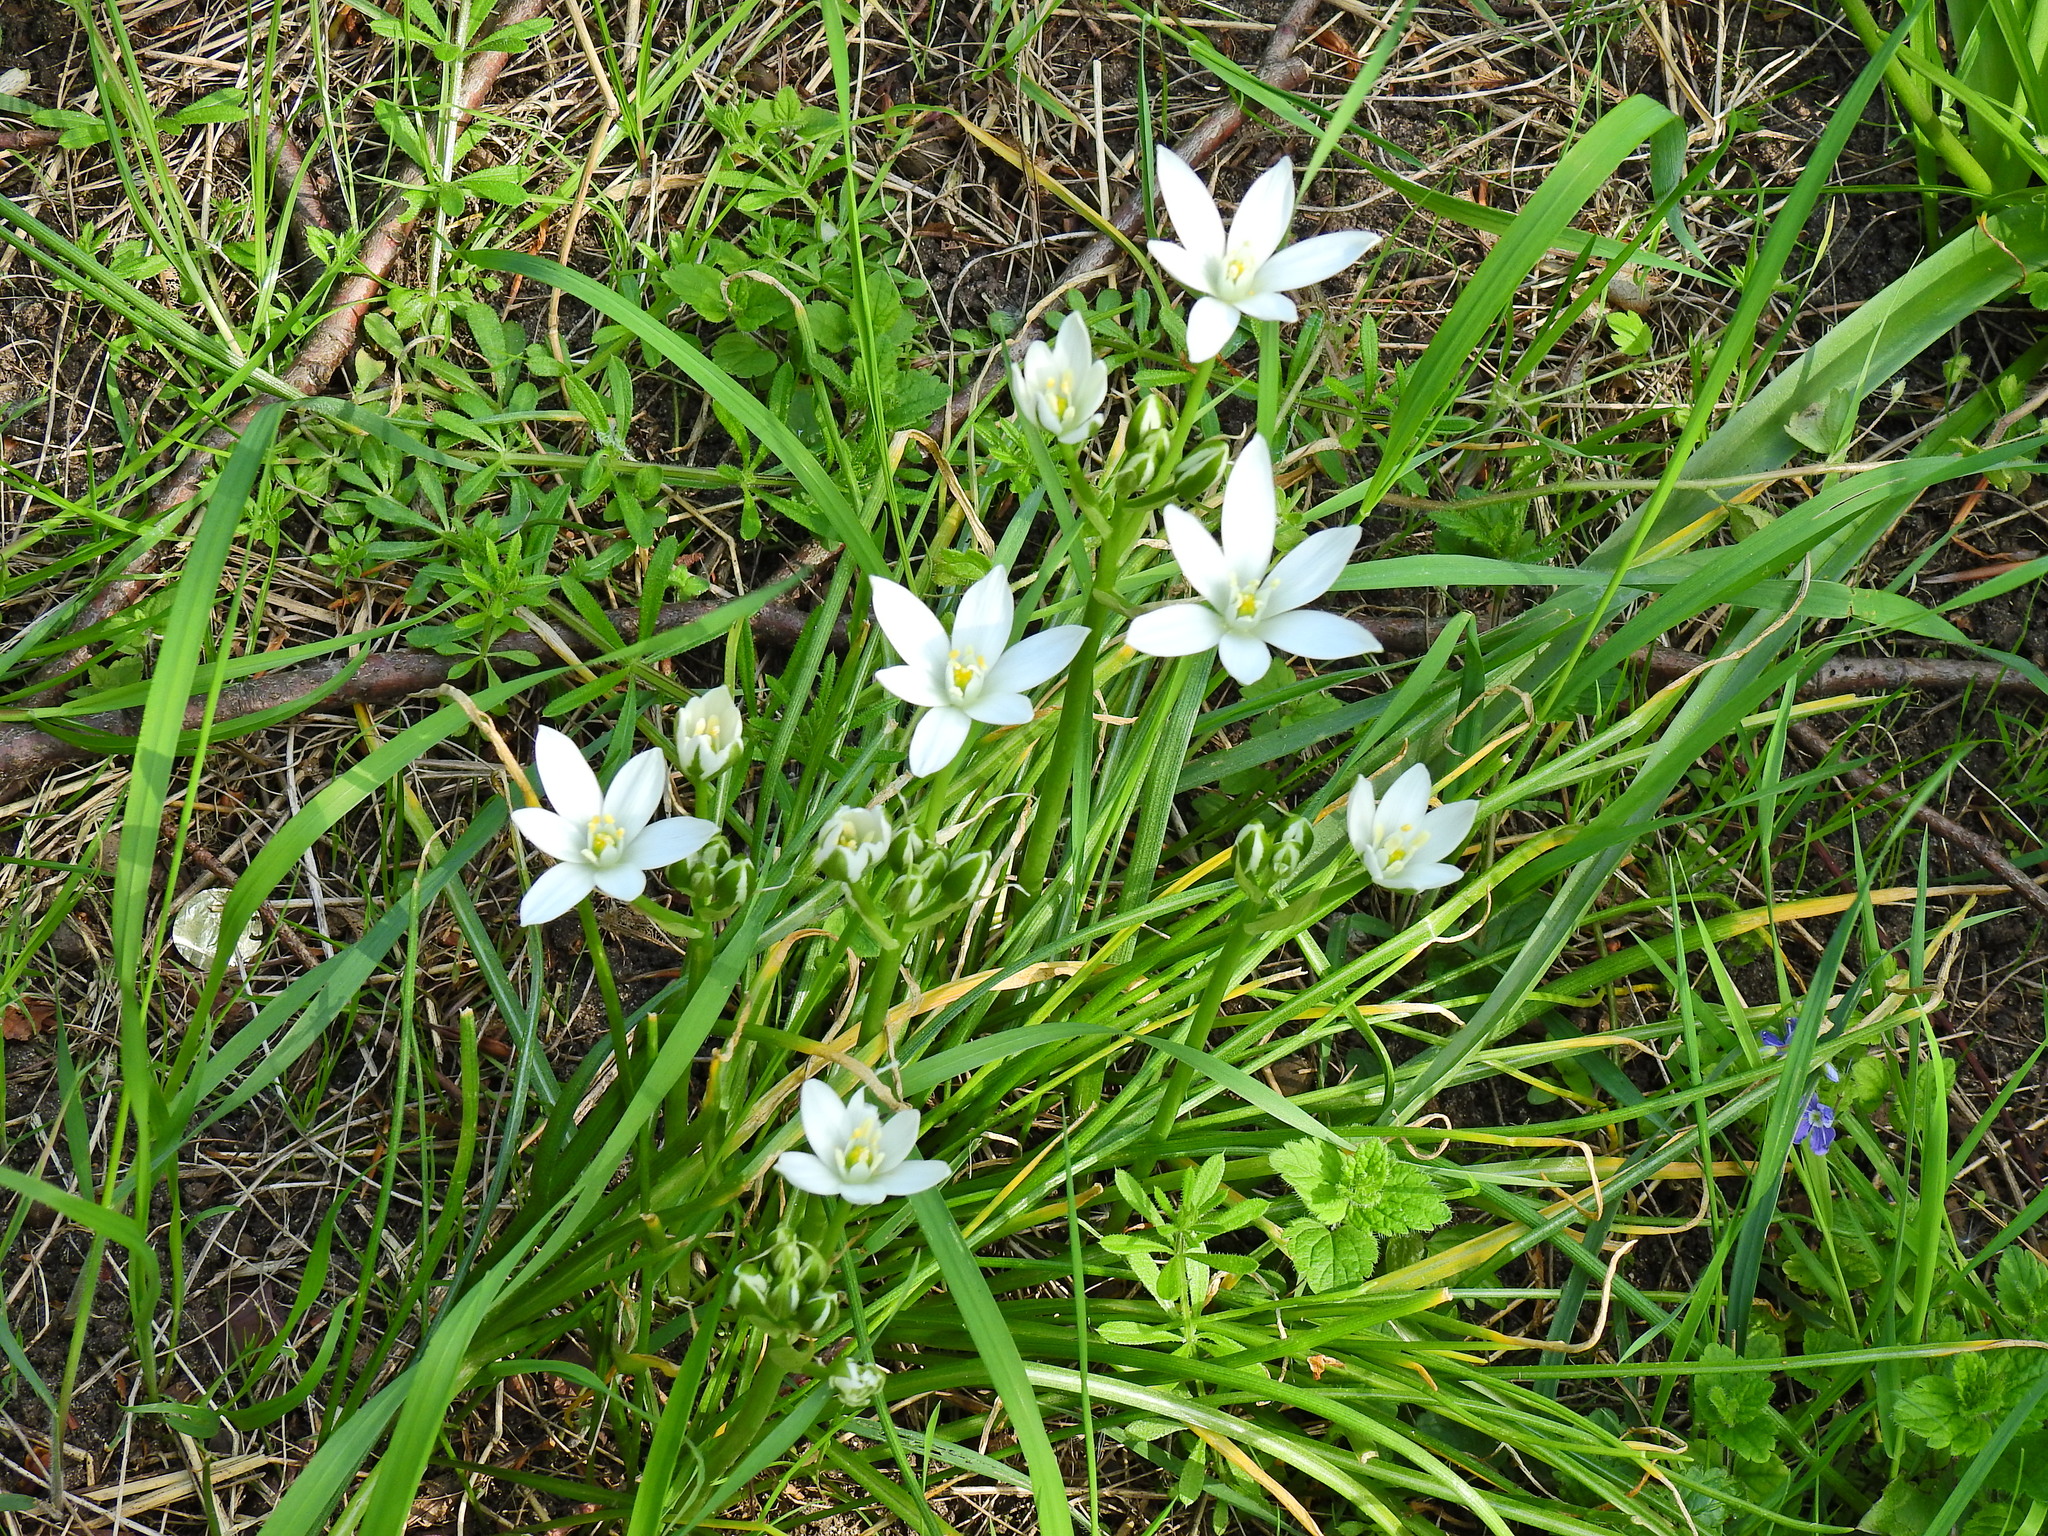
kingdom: Plantae
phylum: Tracheophyta
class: Liliopsida
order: Asparagales
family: Asparagaceae
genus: Ornithogalum
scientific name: Ornithogalum umbellatum
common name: Garden star-of-bethlehem
